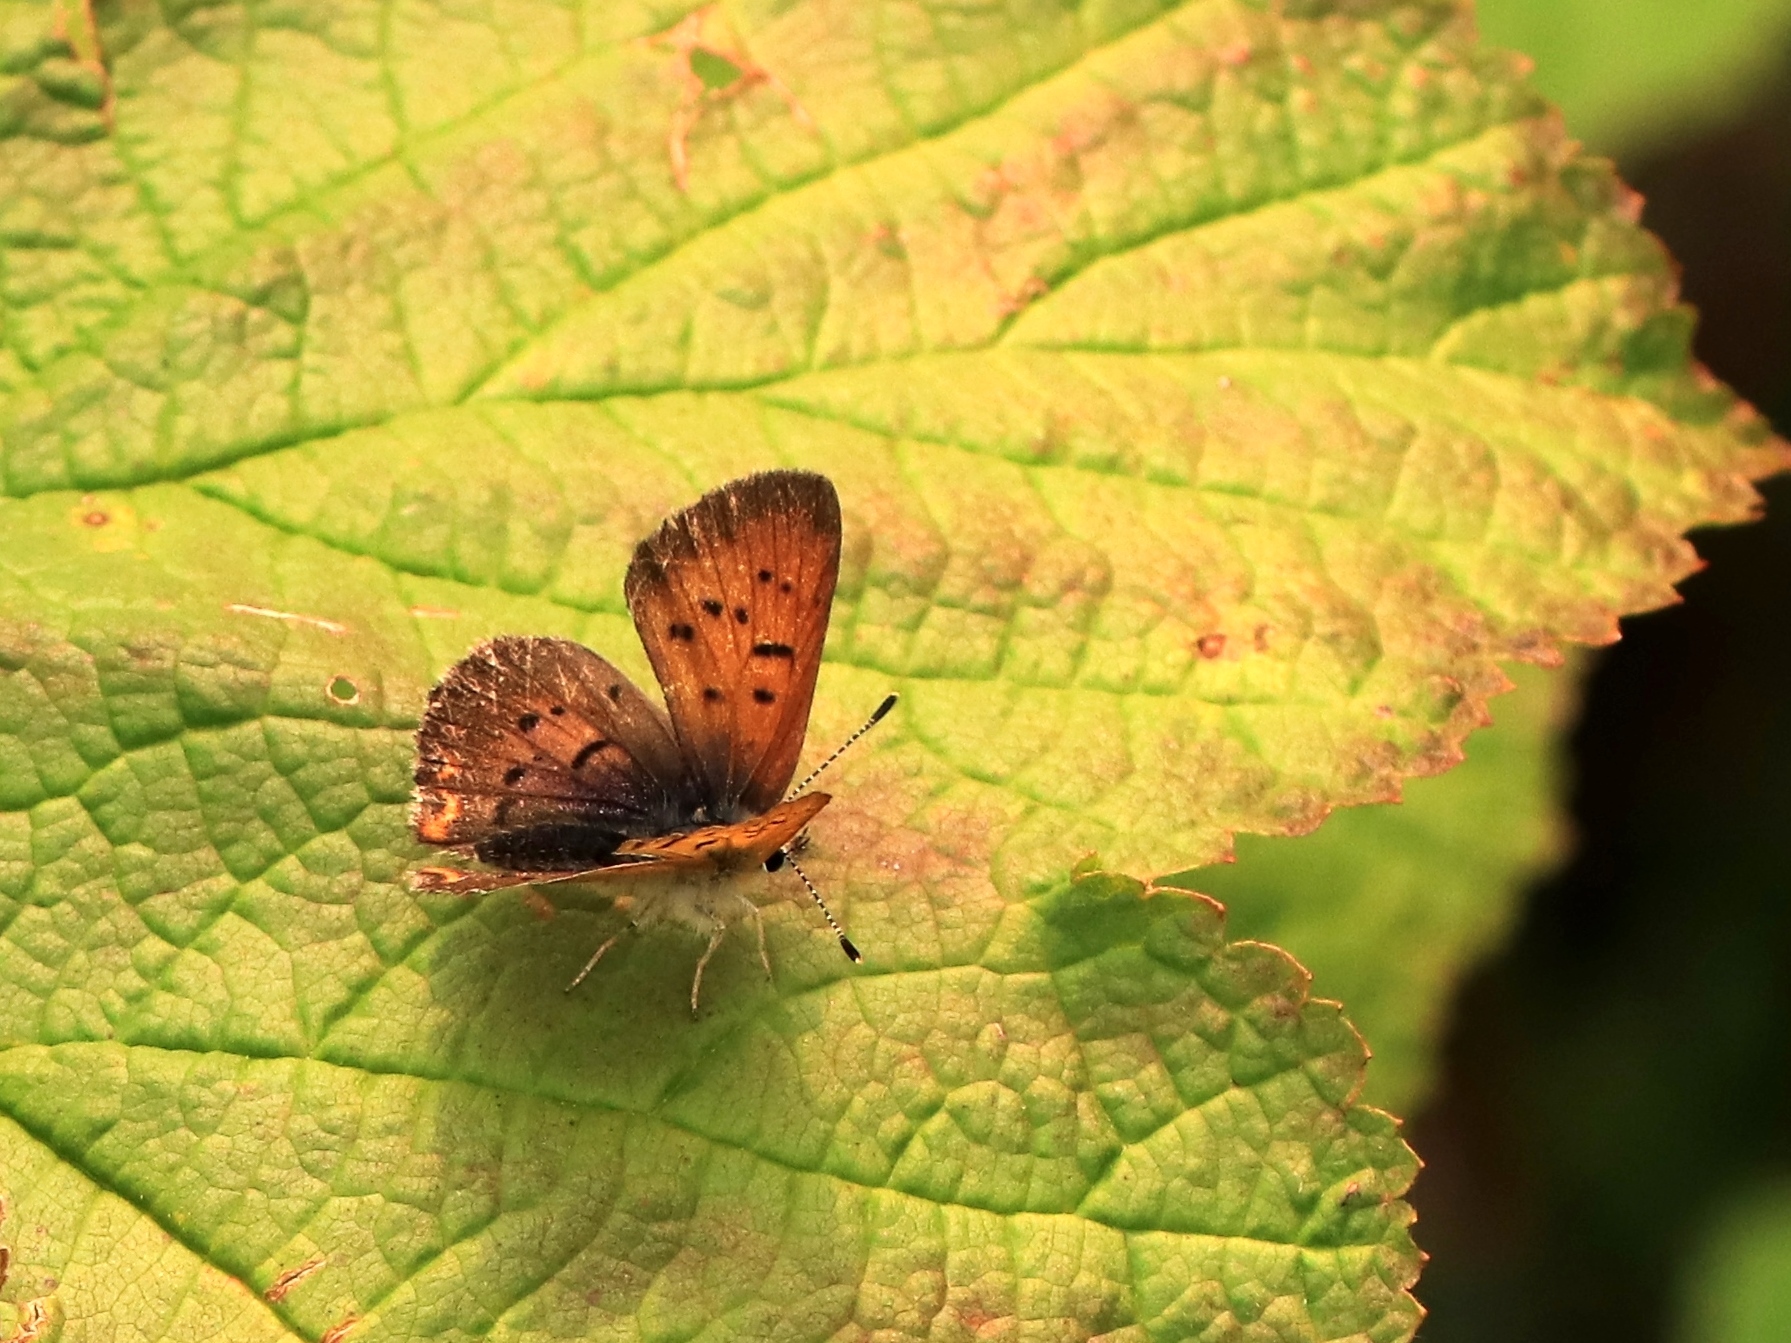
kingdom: Animalia
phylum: Arthropoda
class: Insecta
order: Lepidoptera
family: Lycaenidae
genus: Tharsalea
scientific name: Tharsalea helloides
